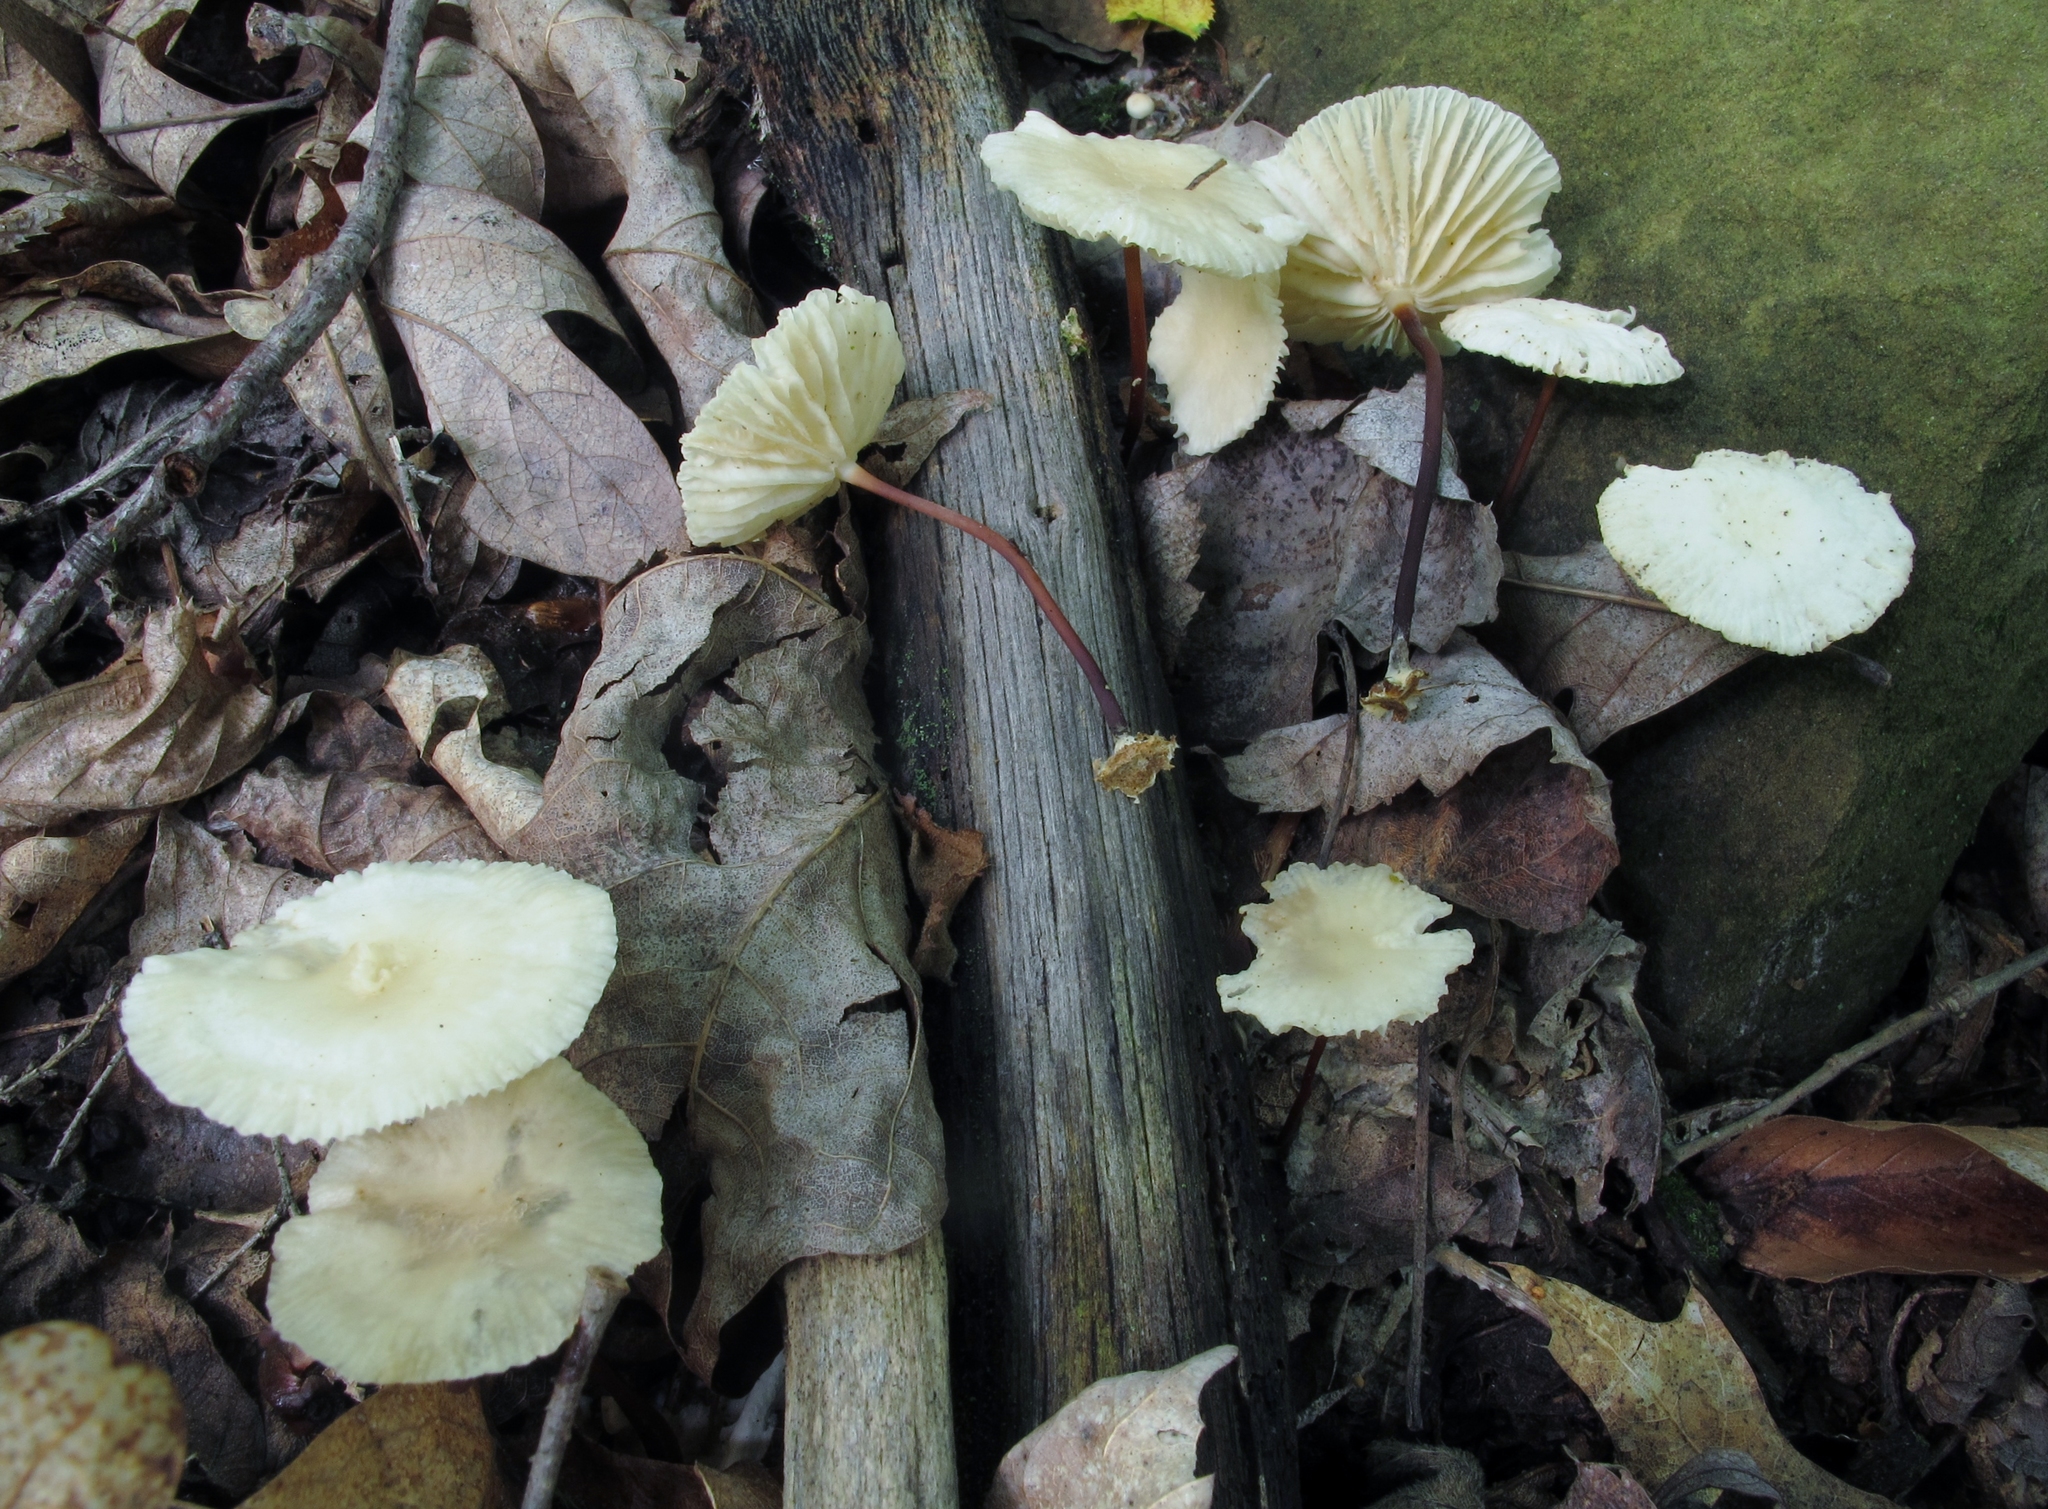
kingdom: Fungi
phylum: Basidiomycota
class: Agaricomycetes
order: Agaricales
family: Marasmiaceae
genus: Marasmius
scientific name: Marasmius delectans
